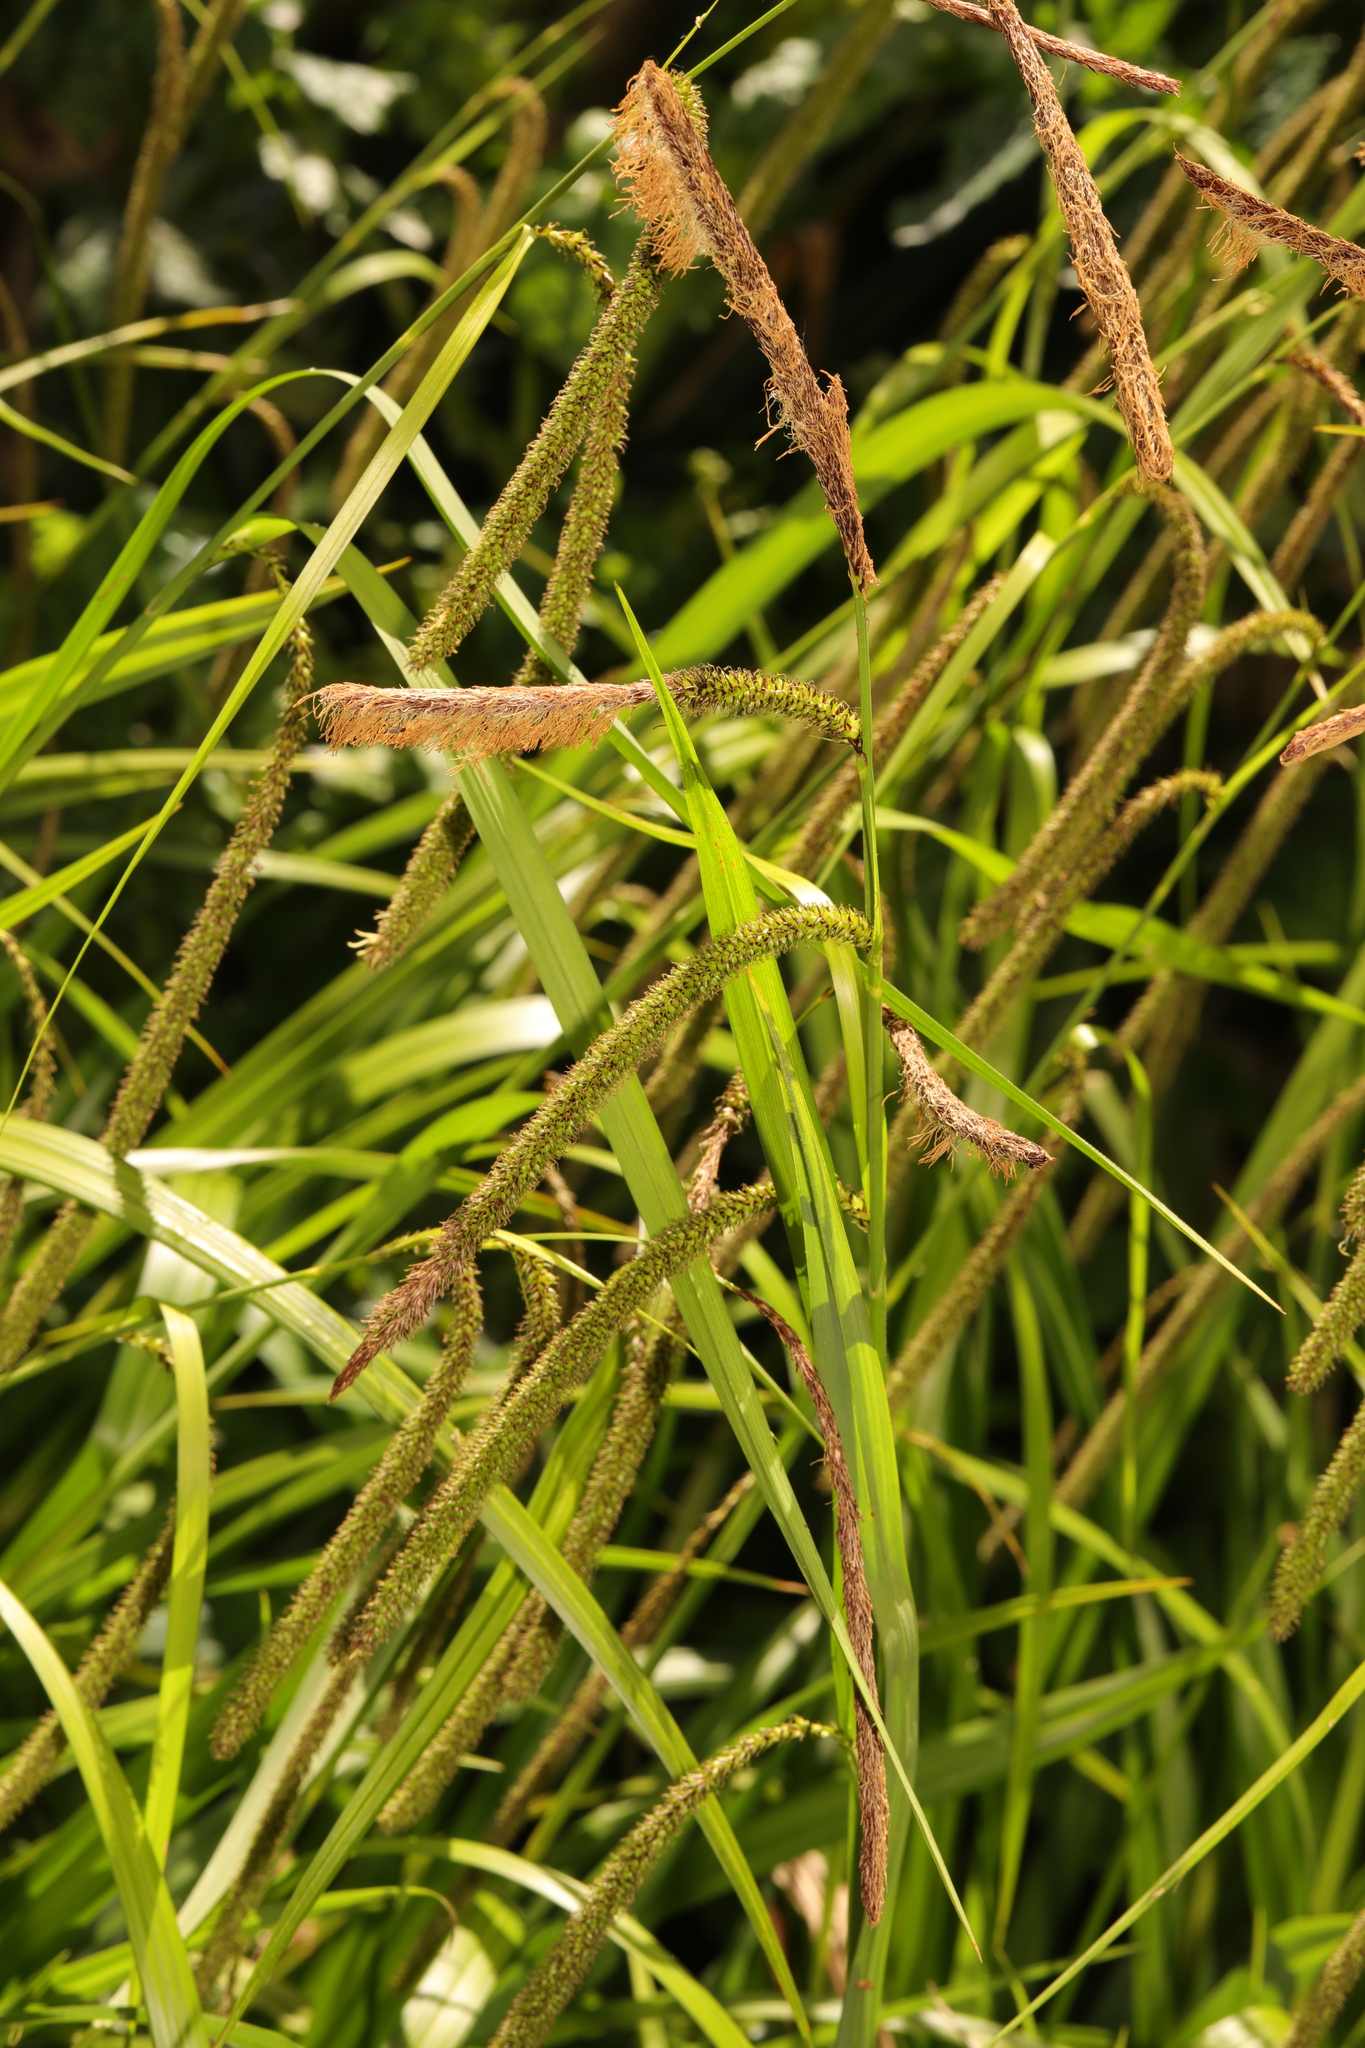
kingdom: Plantae
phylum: Tracheophyta
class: Liliopsida
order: Poales
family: Cyperaceae
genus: Carex
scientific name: Carex pendula
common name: Pendulous sedge
